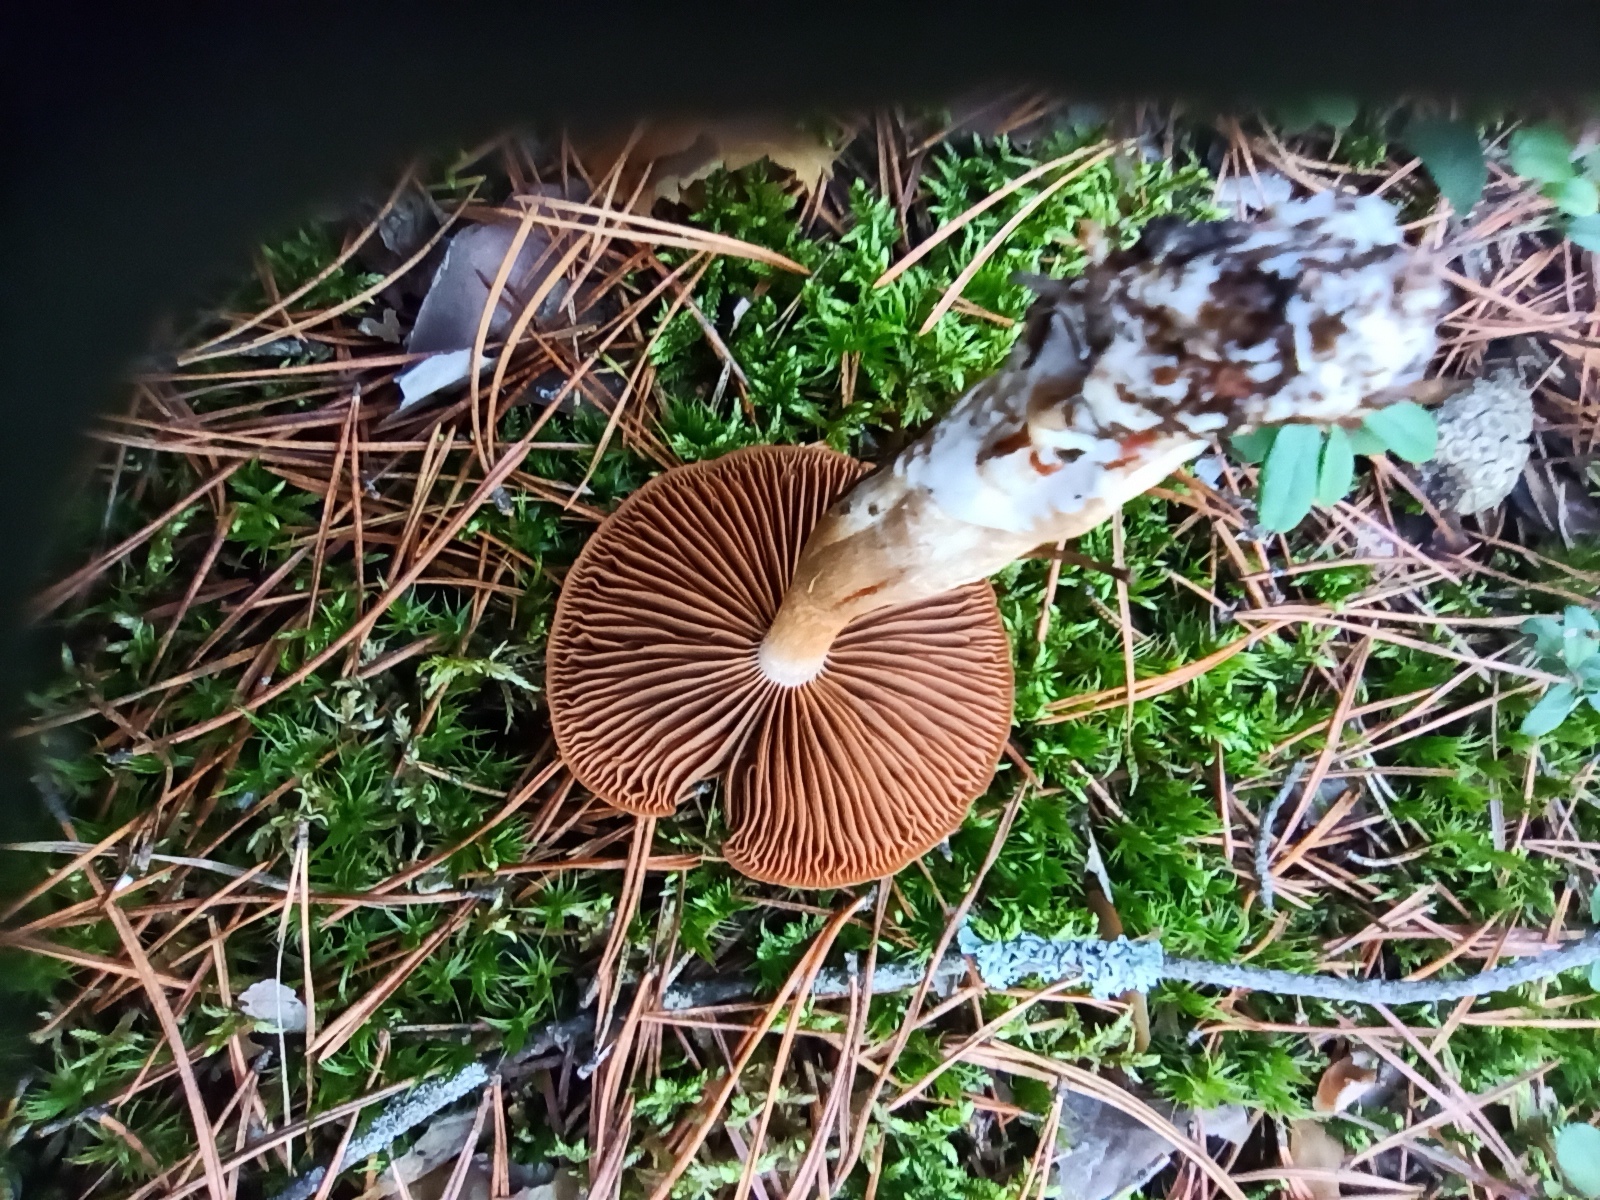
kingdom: Fungi
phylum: Basidiomycota
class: Agaricomycetes
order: Agaricales
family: Cortinariaceae
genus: Cortinarius
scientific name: Cortinarius
